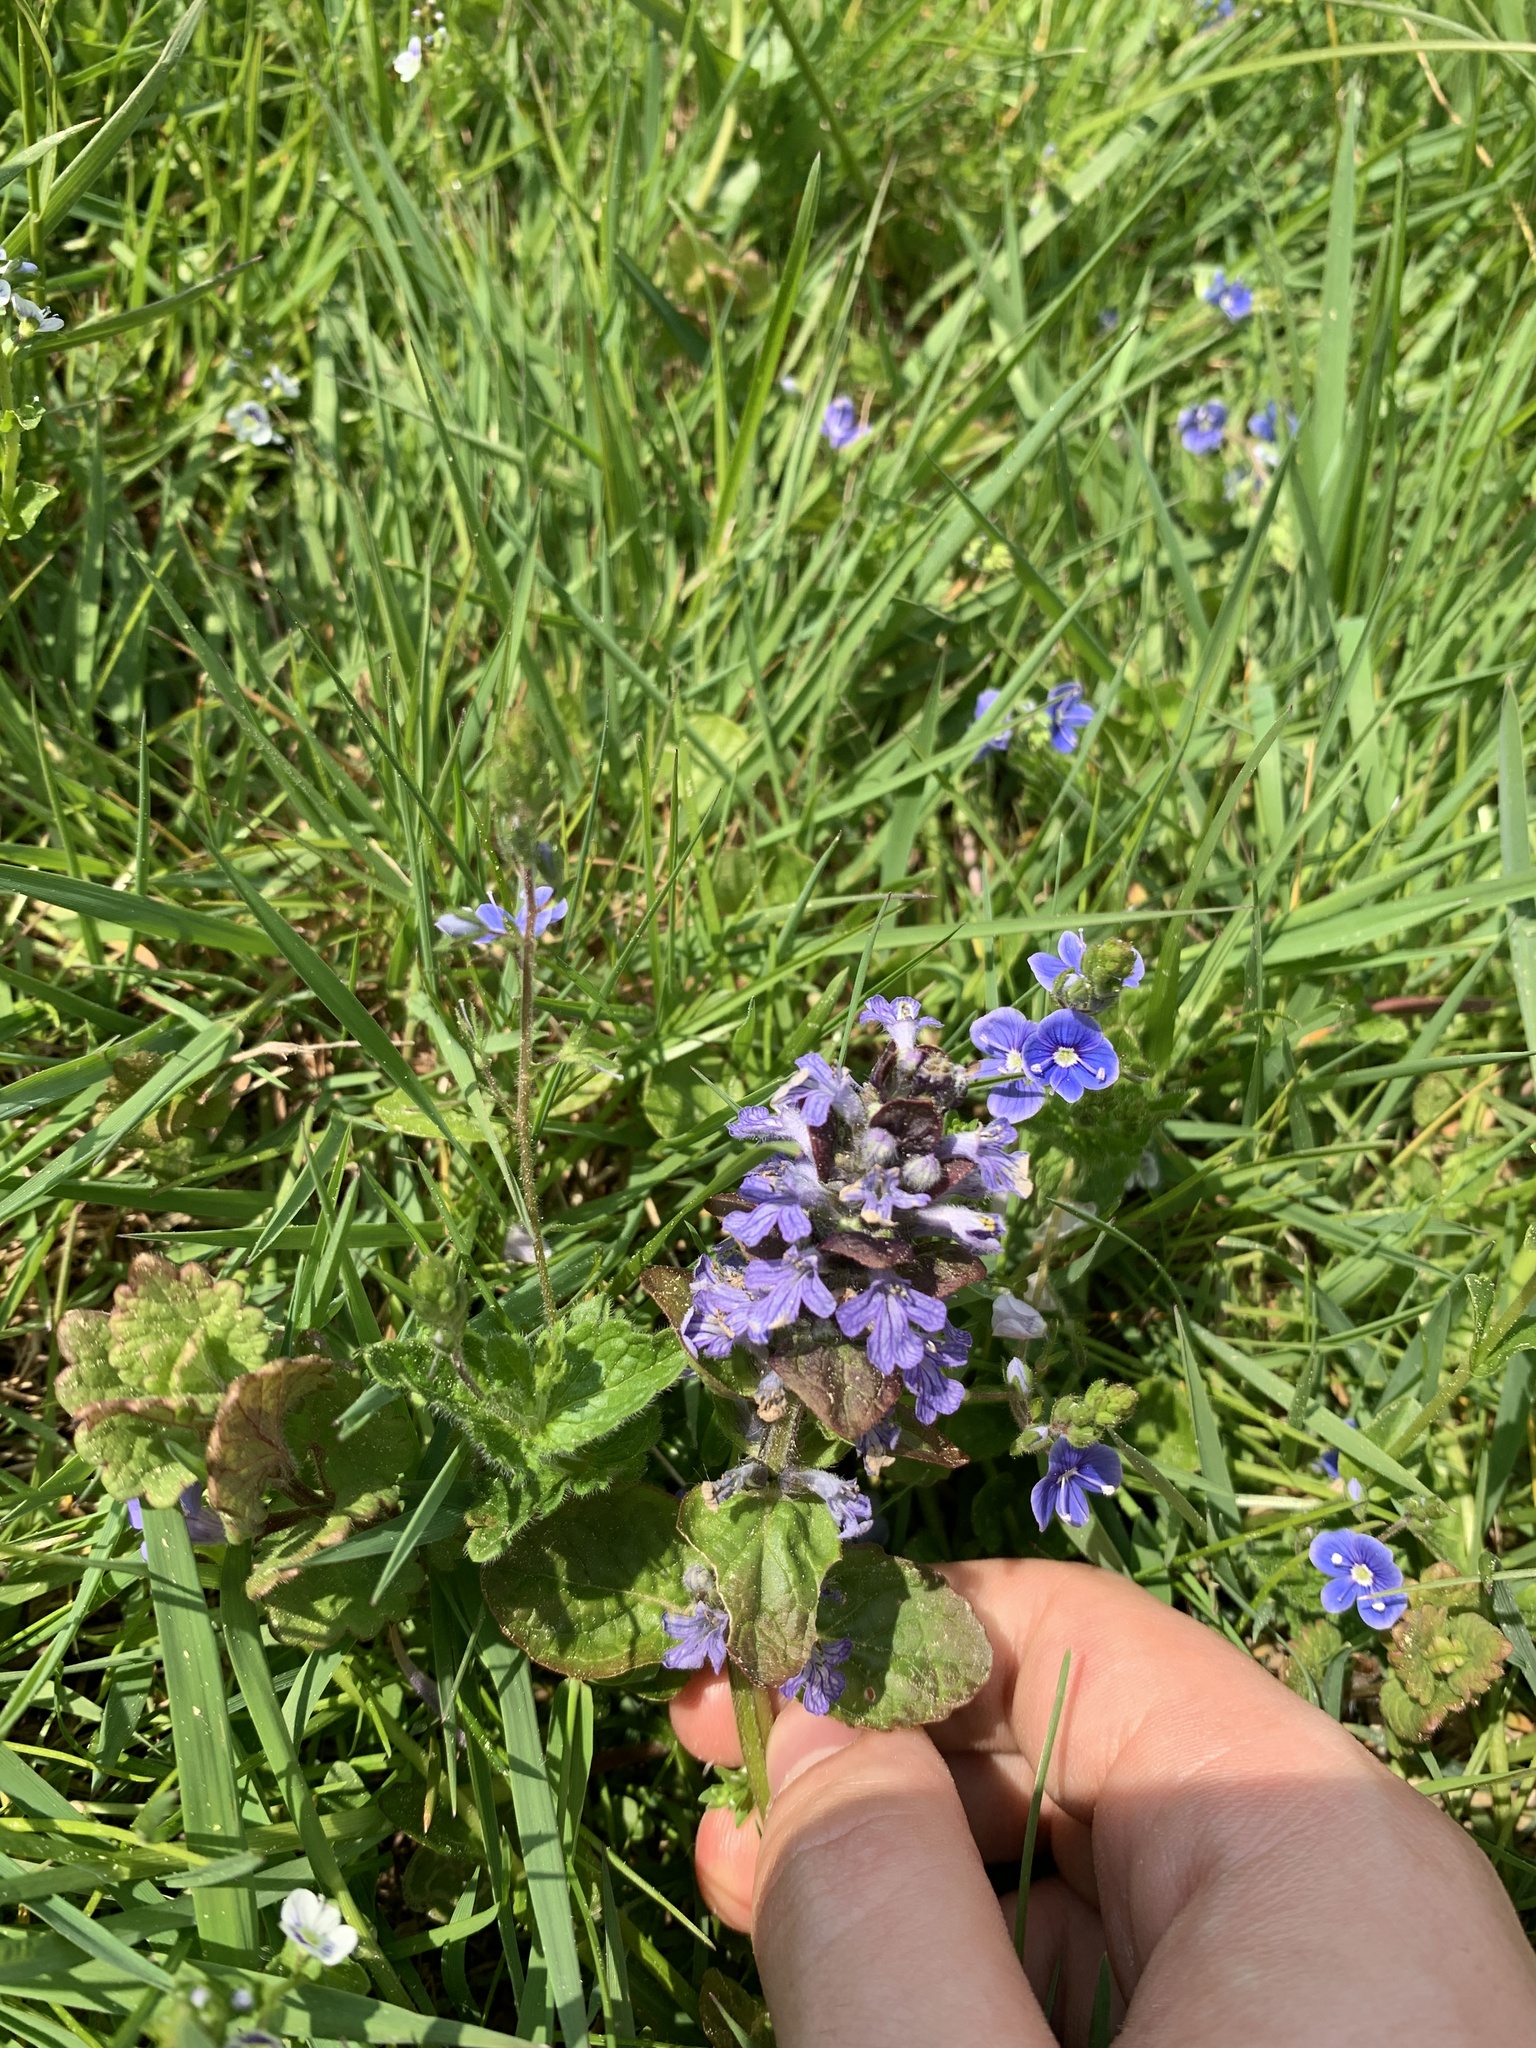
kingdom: Plantae
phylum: Tracheophyta
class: Magnoliopsida
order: Lamiales
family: Lamiaceae
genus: Ajuga
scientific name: Ajuga reptans
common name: Bugle
